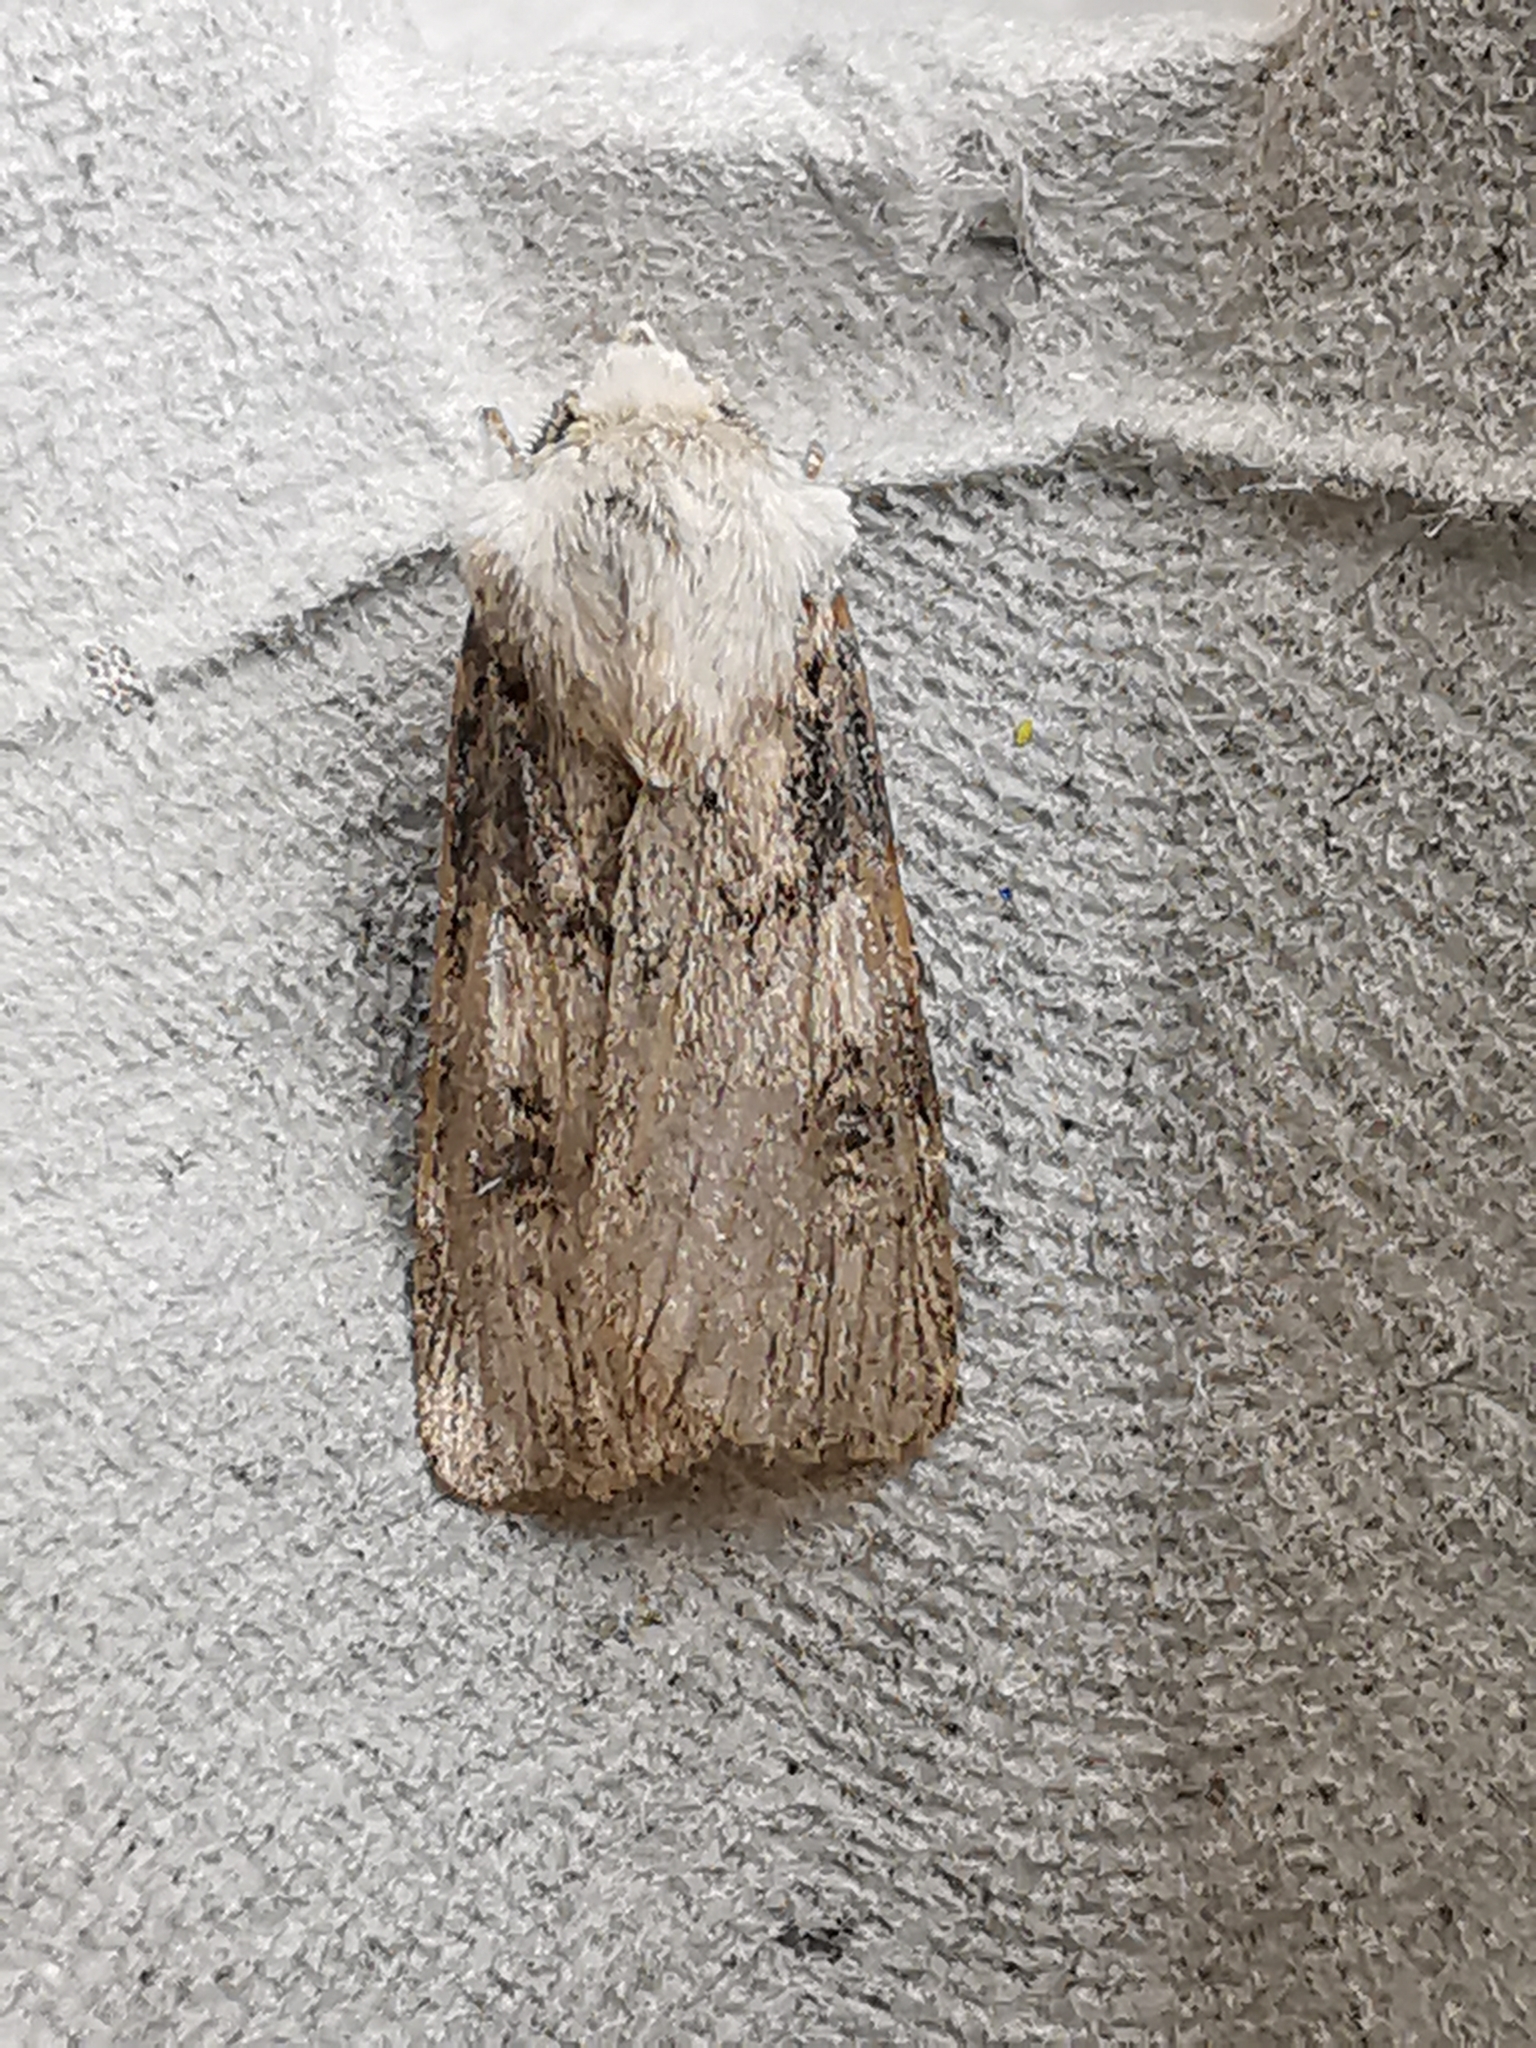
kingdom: Animalia
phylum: Arthropoda
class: Insecta
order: Lepidoptera
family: Noctuidae
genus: Agrotis
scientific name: Agrotis puta
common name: Shuttle-shaped dart
